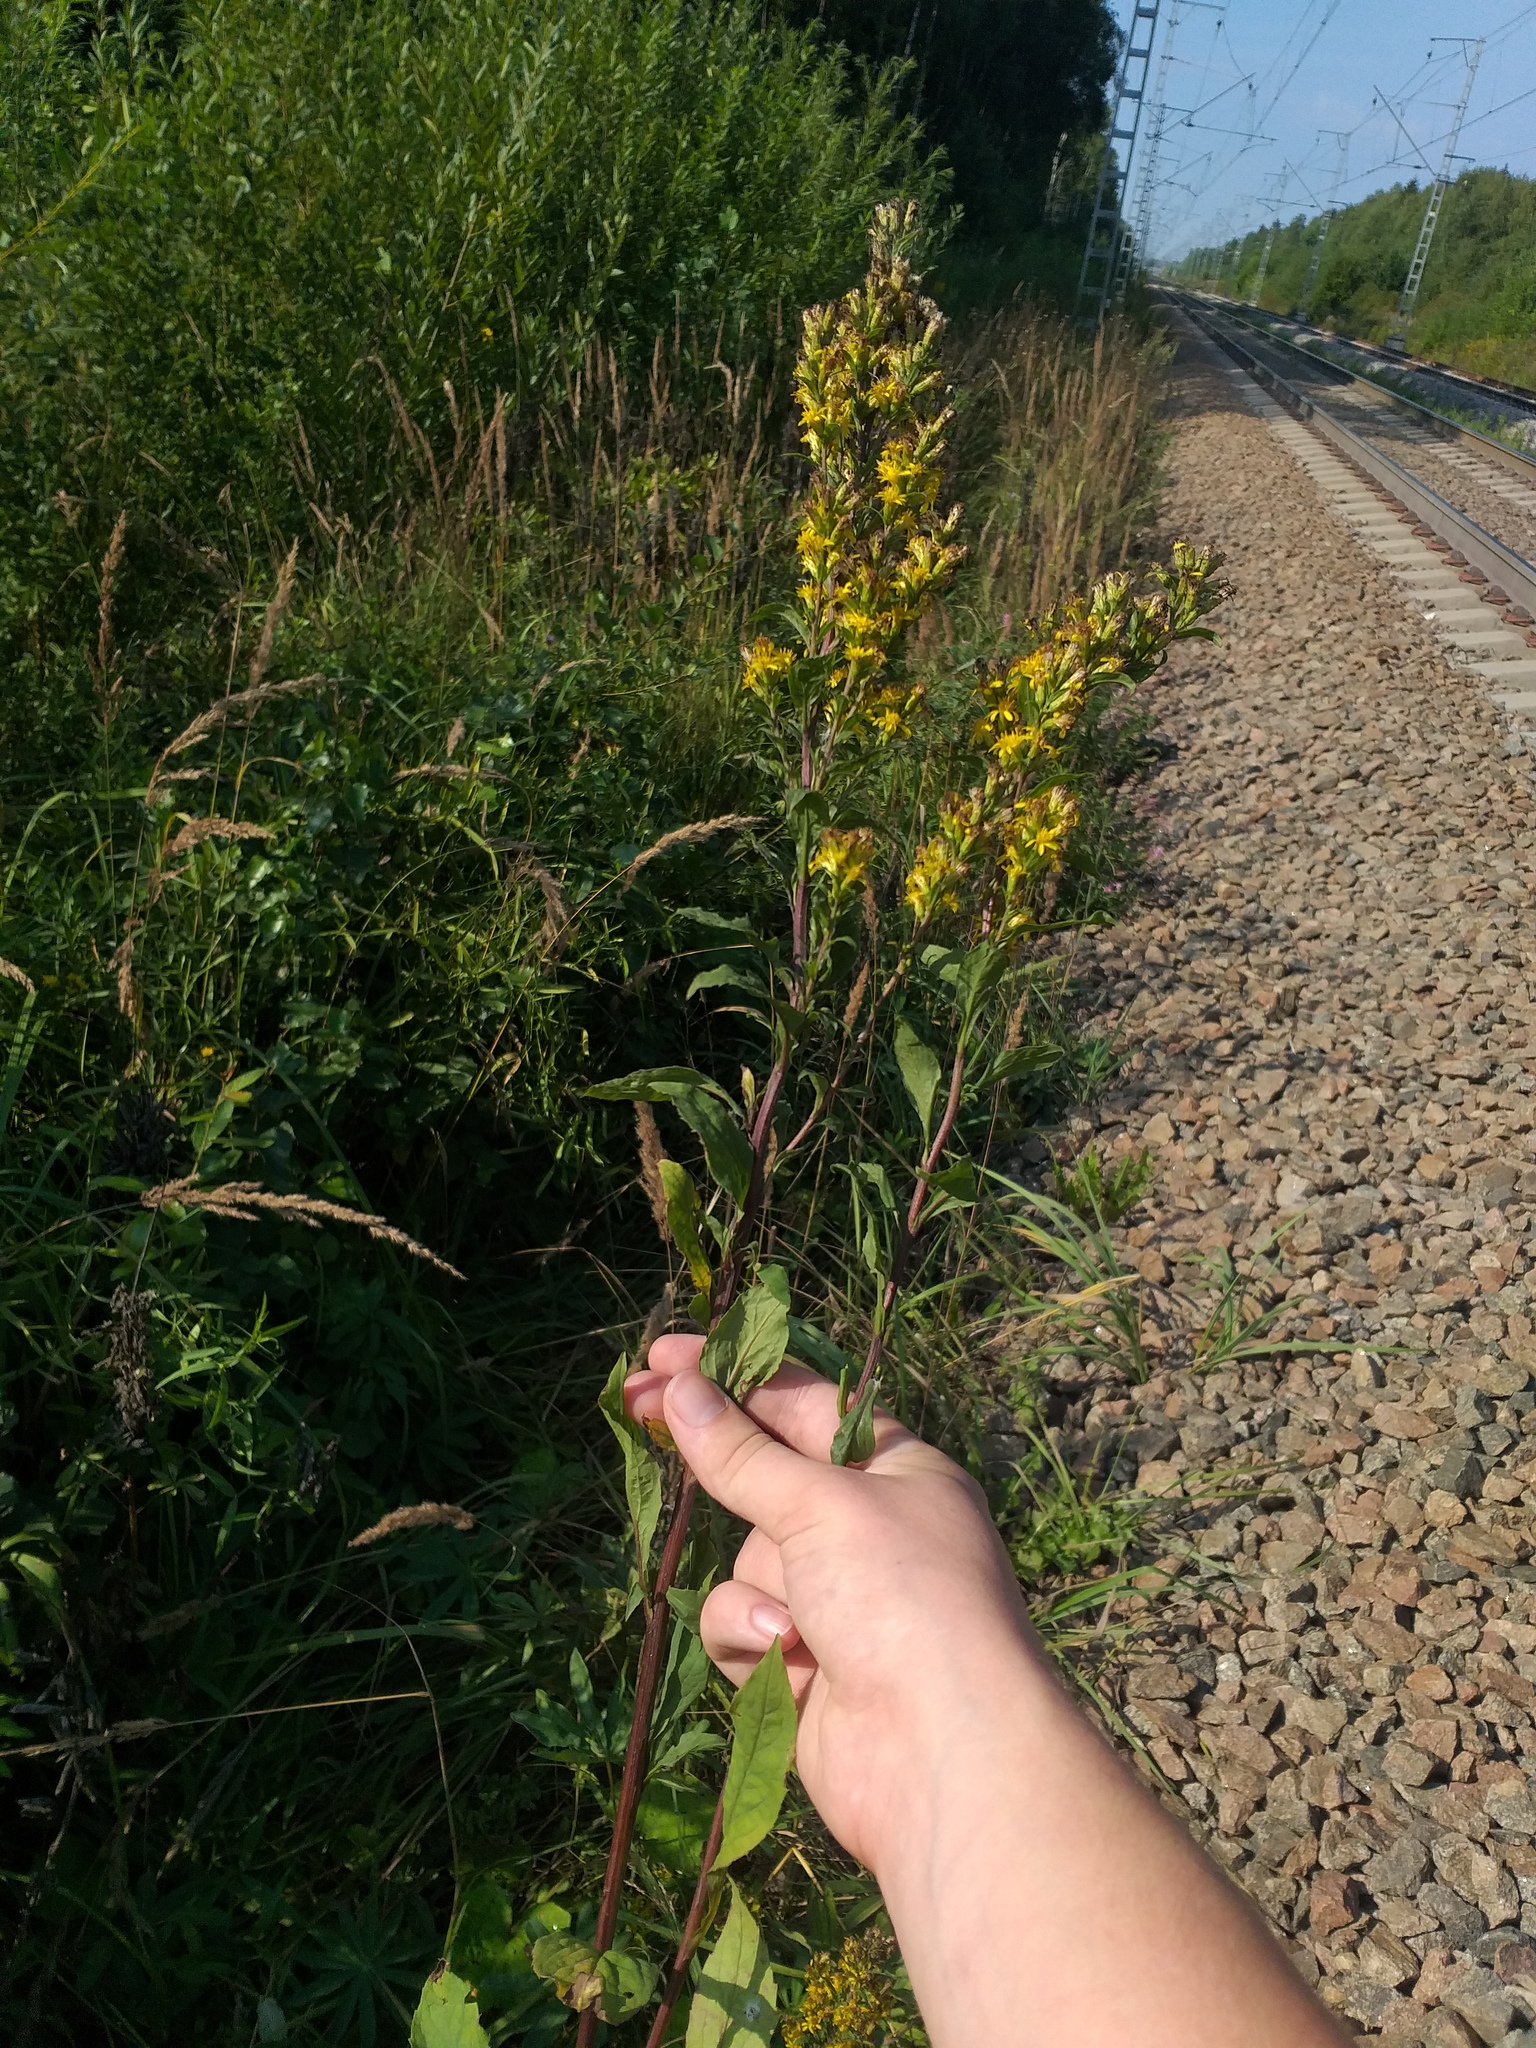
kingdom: Plantae
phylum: Tracheophyta
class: Magnoliopsida
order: Asterales
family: Asteraceae
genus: Solidago
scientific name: Solidago virgaurea
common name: Goldenrod
